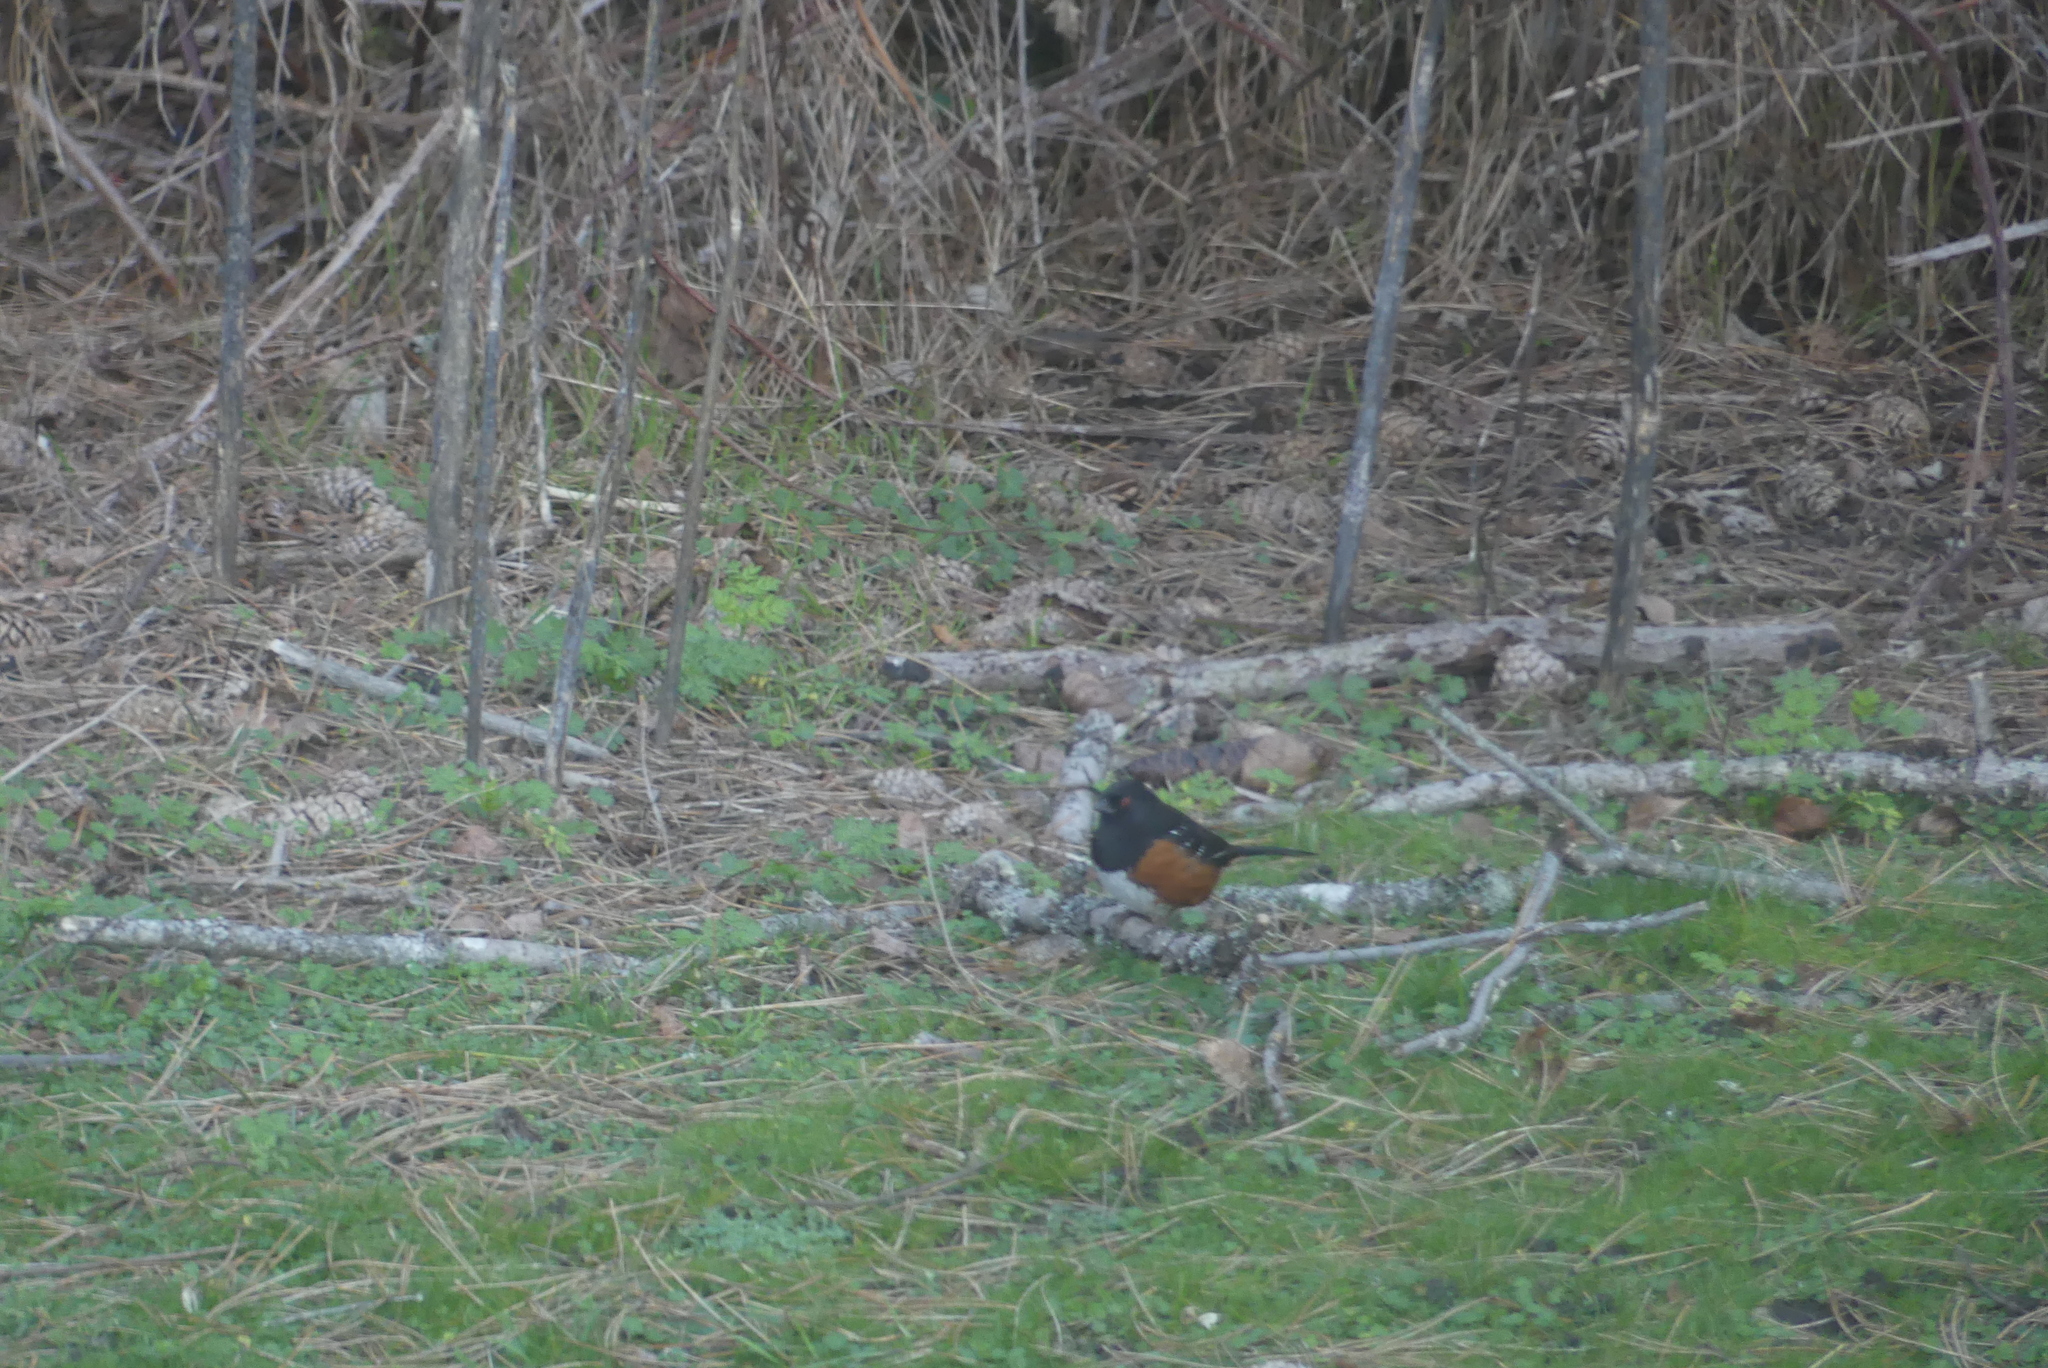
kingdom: Animalia
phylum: Chordata
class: Aves
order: Passeriformes
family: Passerellidae
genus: Pipilo
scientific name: Pipilo maculatus
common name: Spotted towhee
